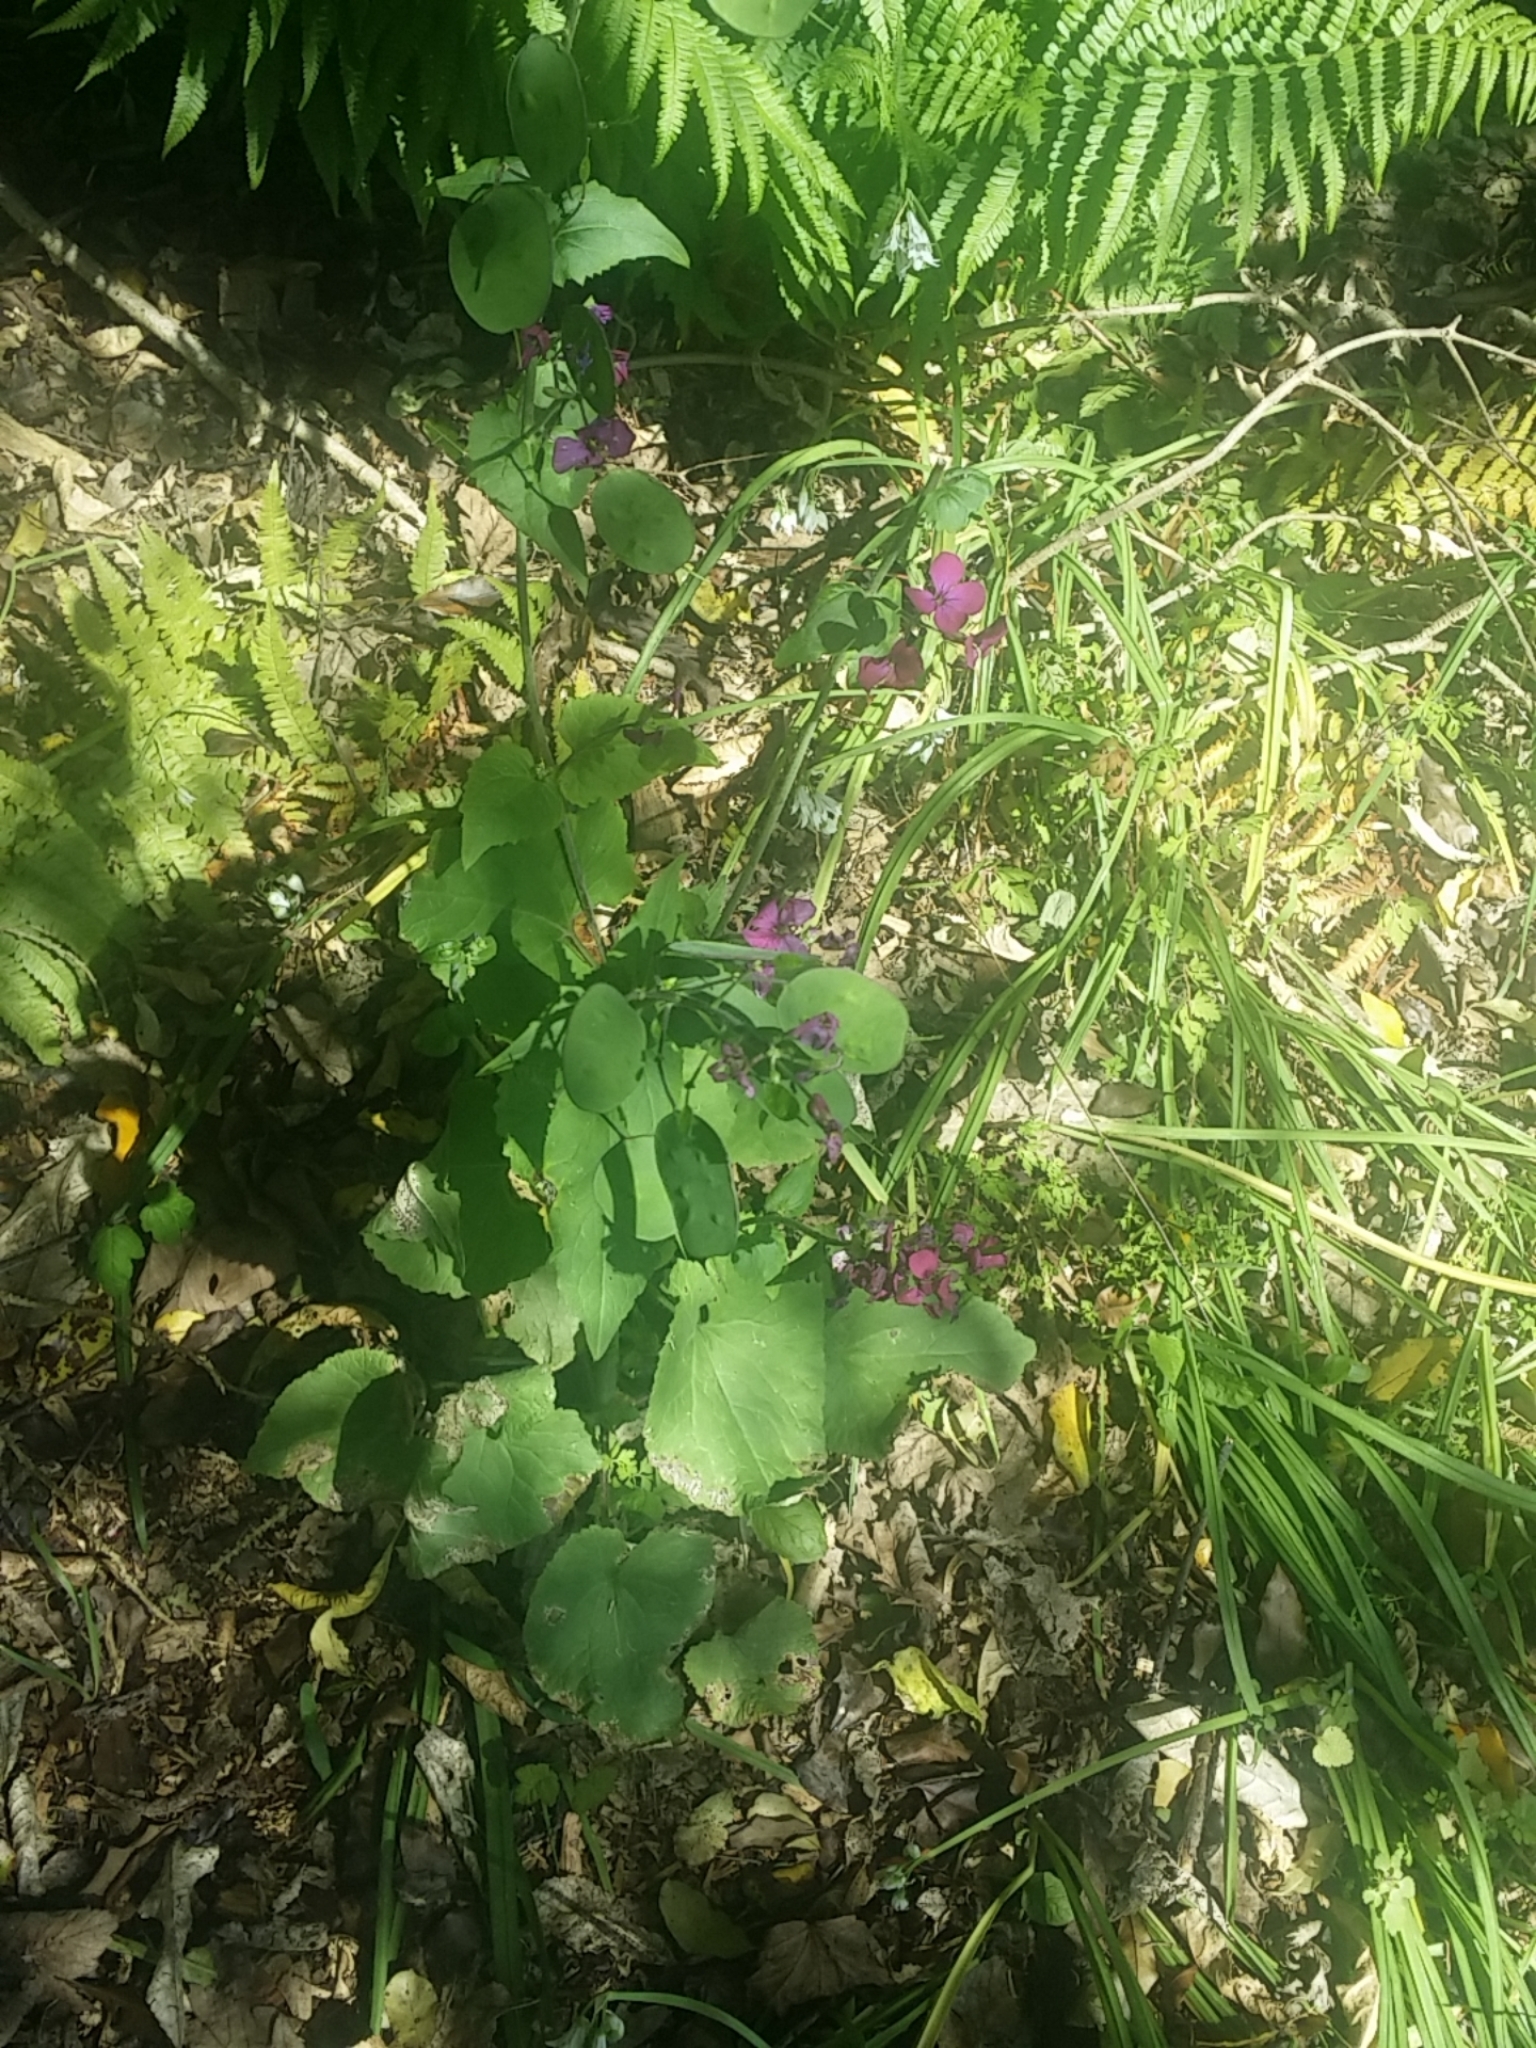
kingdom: Plantae
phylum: Tracheophyta
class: Magnoliopsida
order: Brassicales
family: Brassicaceae
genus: Lunaria
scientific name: Lunaria annua
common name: Honesty
